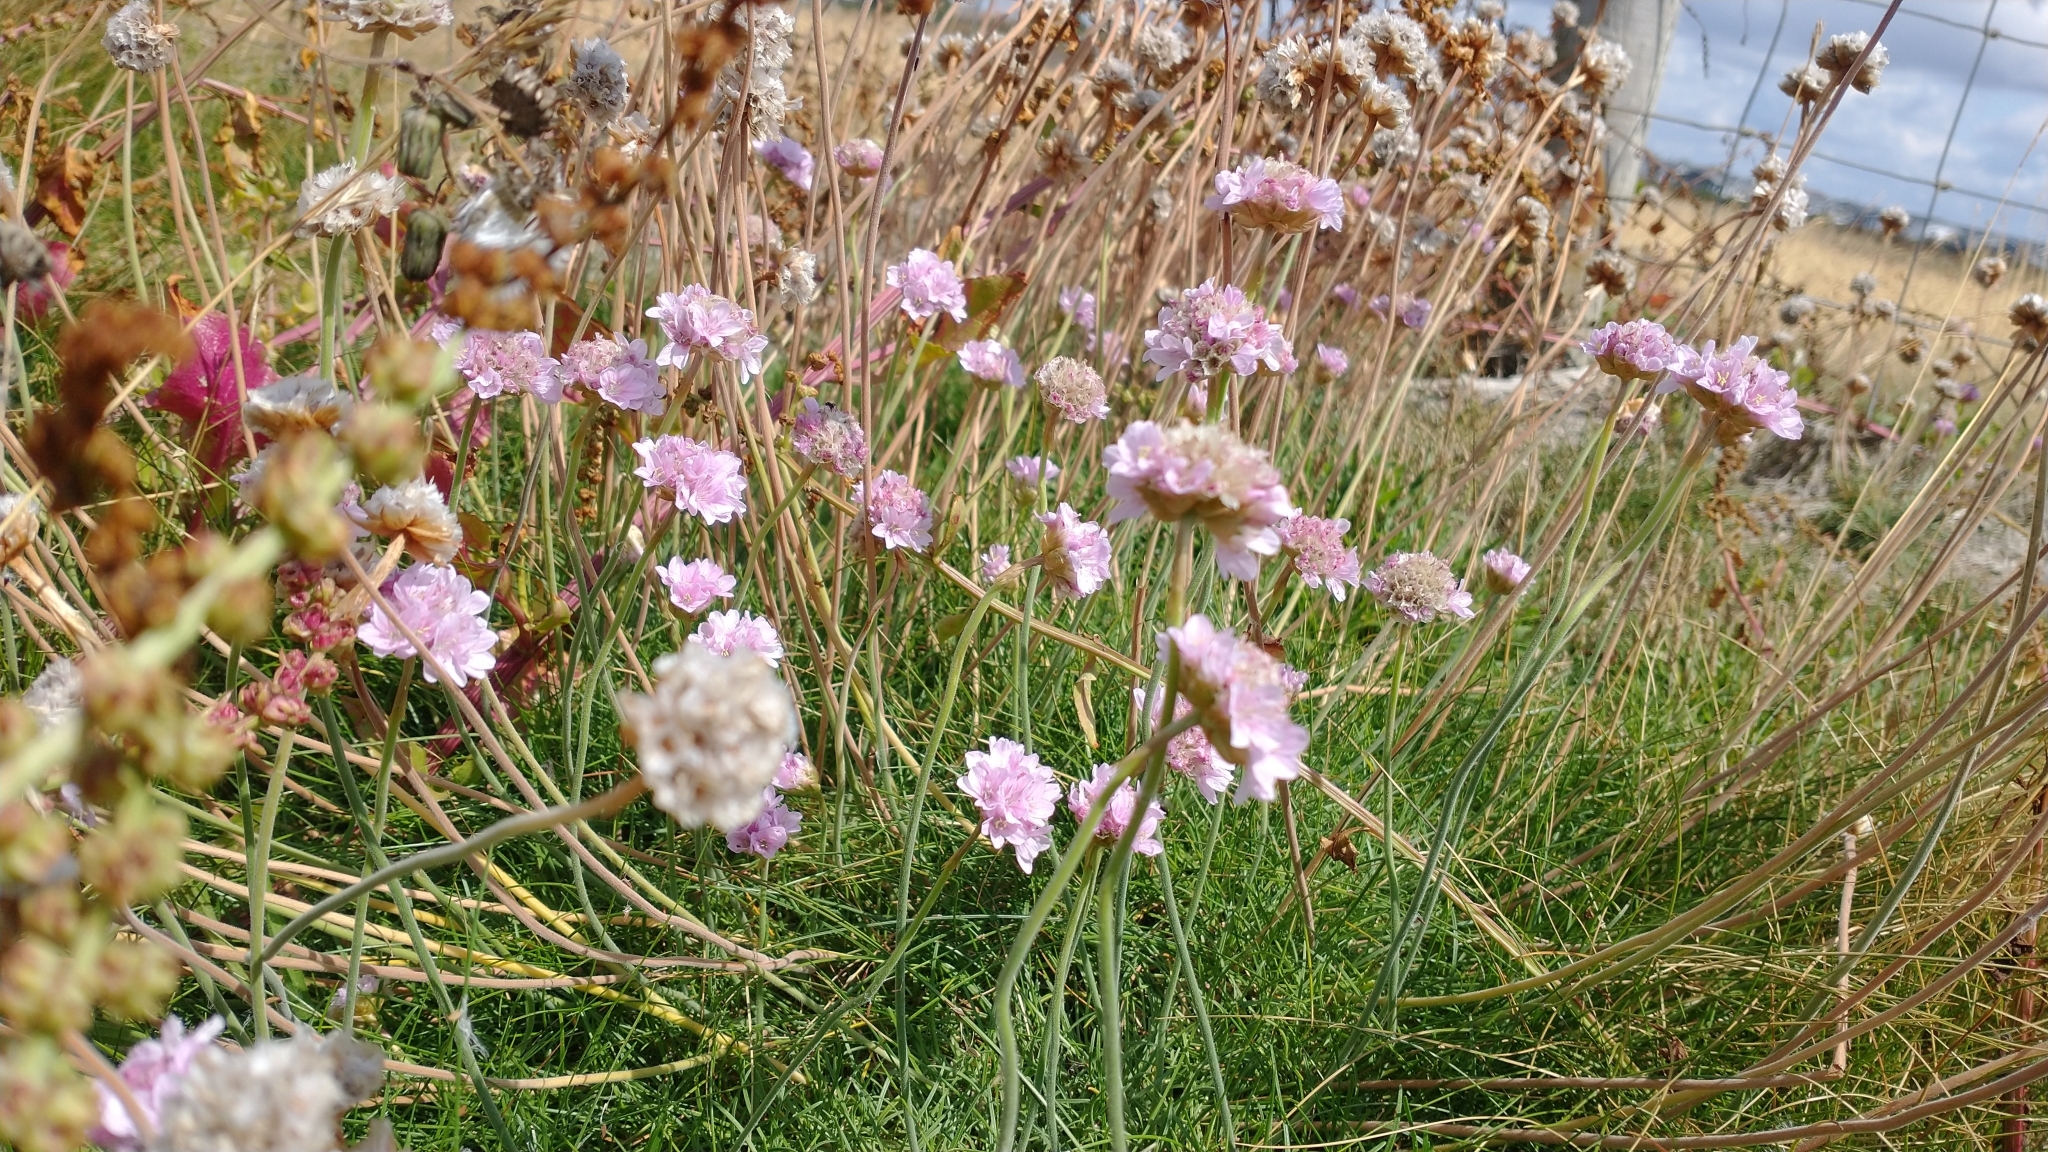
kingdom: Plantae
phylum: Tracheophyta
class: Magnoliopsida
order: Caryophyllales
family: Plumbaginaceae
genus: Armeria
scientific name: Armeria maritima
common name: Thrift
